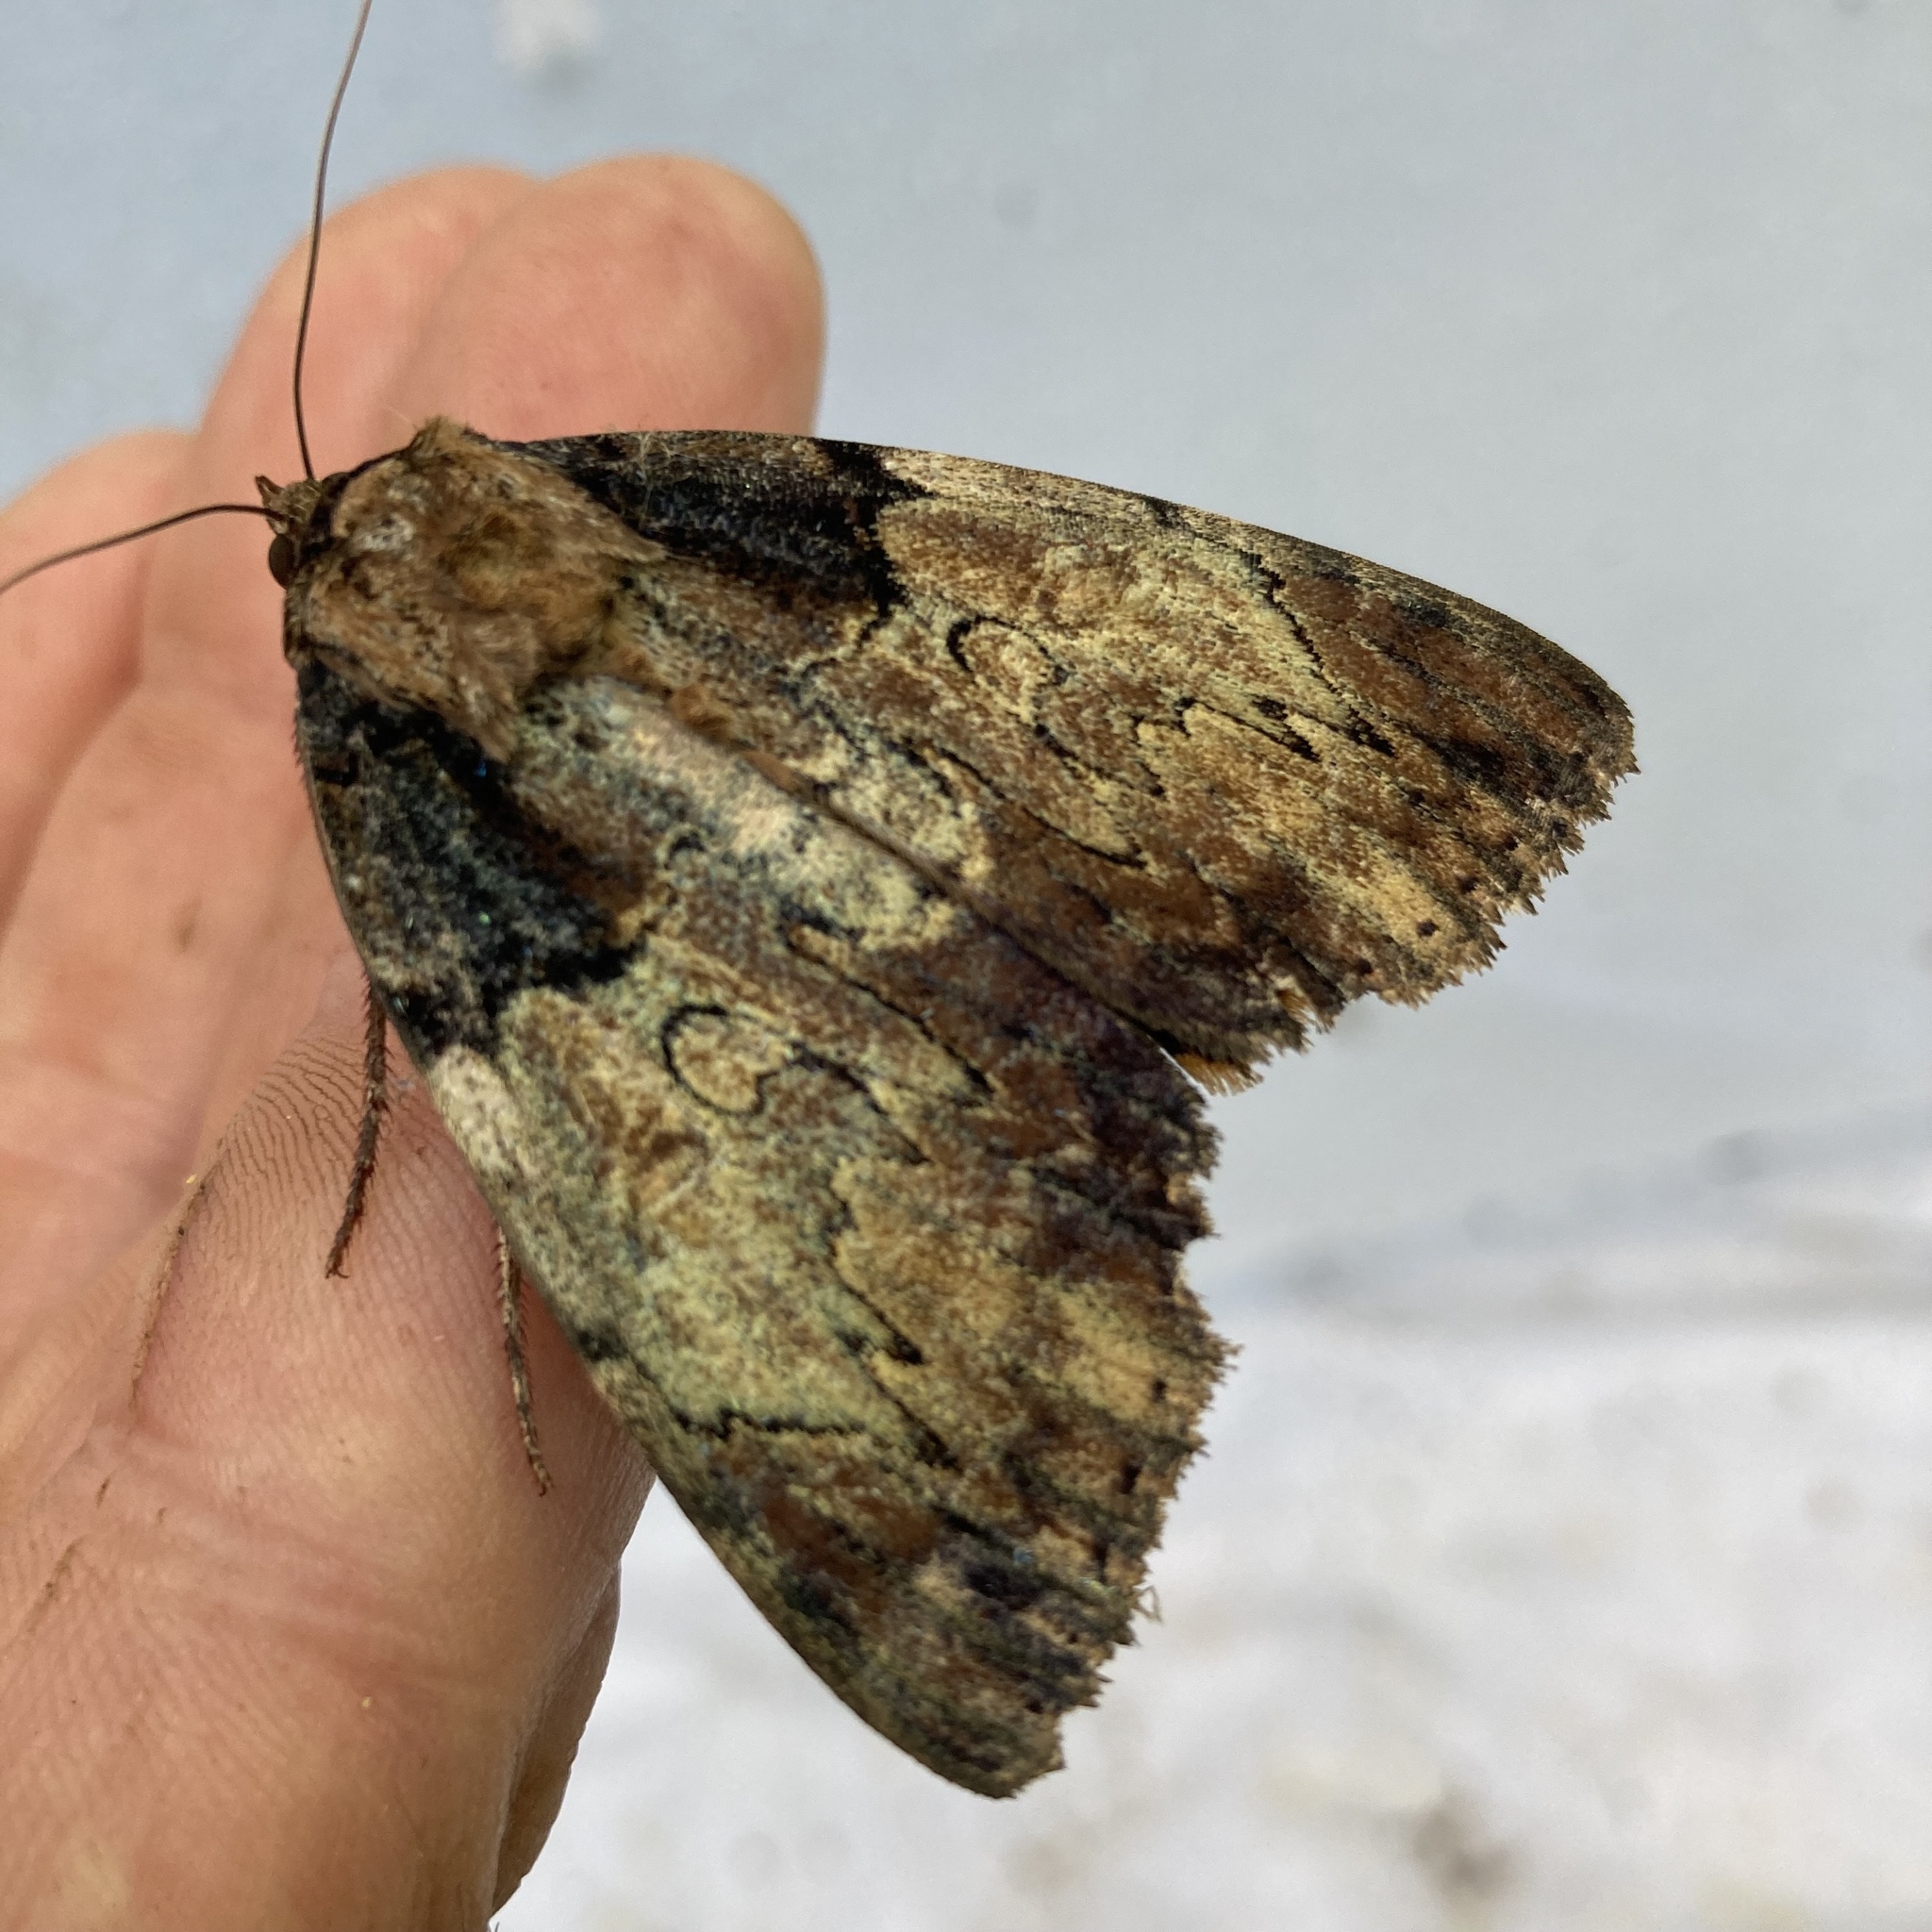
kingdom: Animalia
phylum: Arthropoda
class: Insecta
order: Lepidoptera
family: Erebidae
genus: Catocala
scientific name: Catocala nebulosa
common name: Clouded underwing
